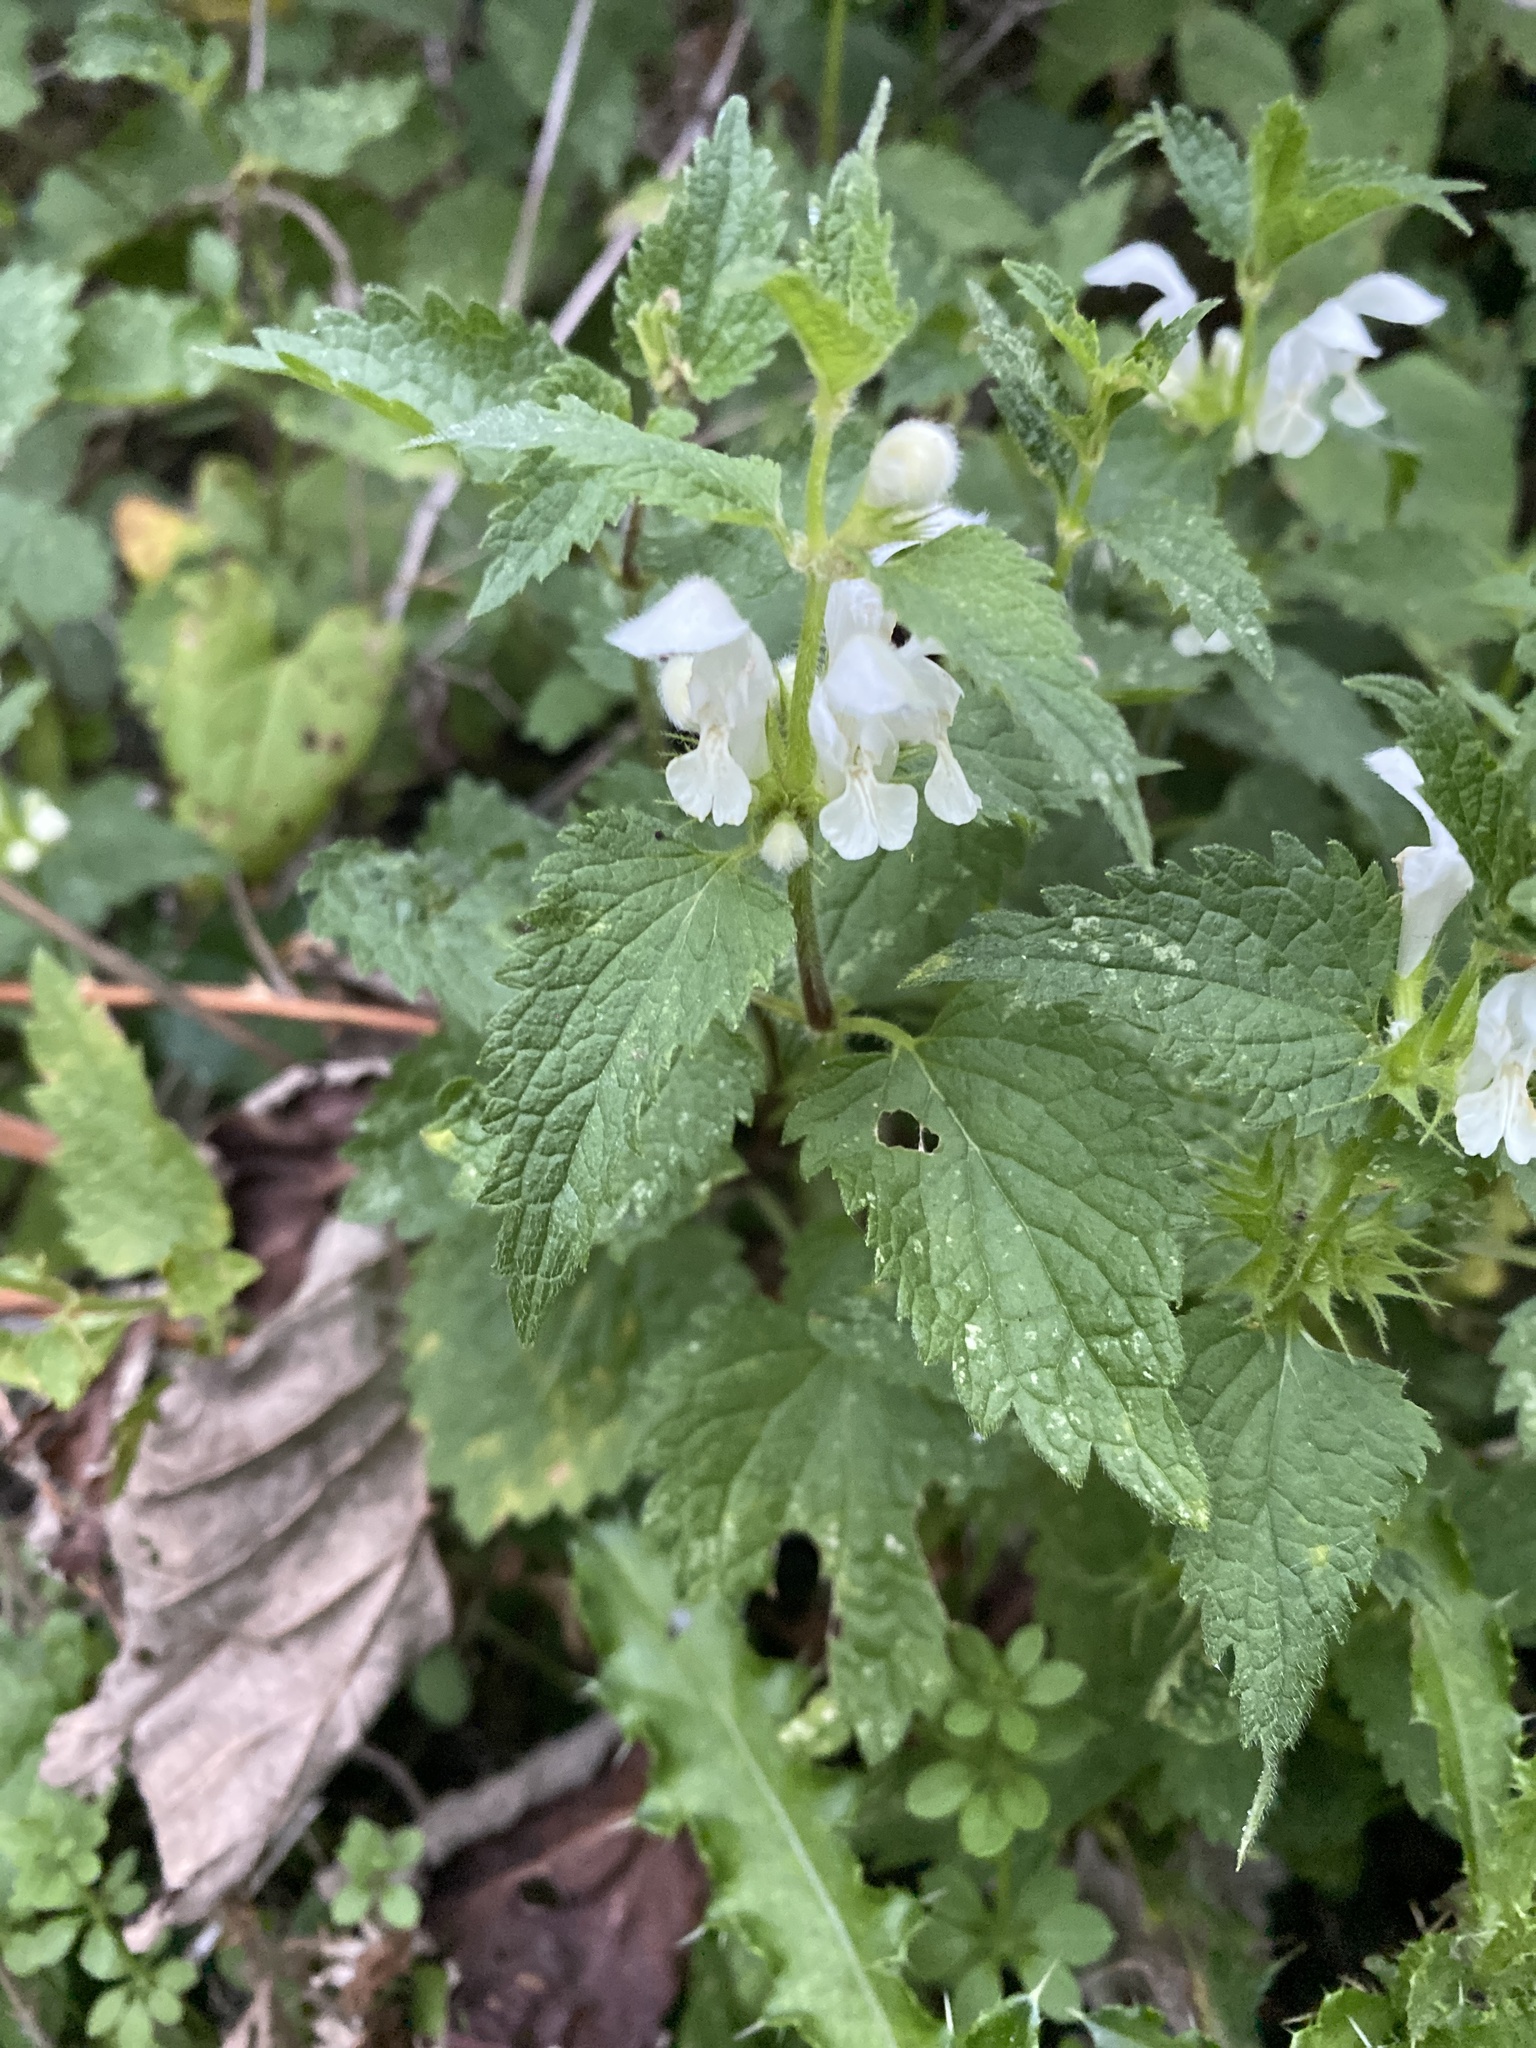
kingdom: Plantae
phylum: Tracheophyta
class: Magnoliopsida
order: Lamiales
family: Lamiaceae
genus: Lamium
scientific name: Lamium album
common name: White dead-nettle
